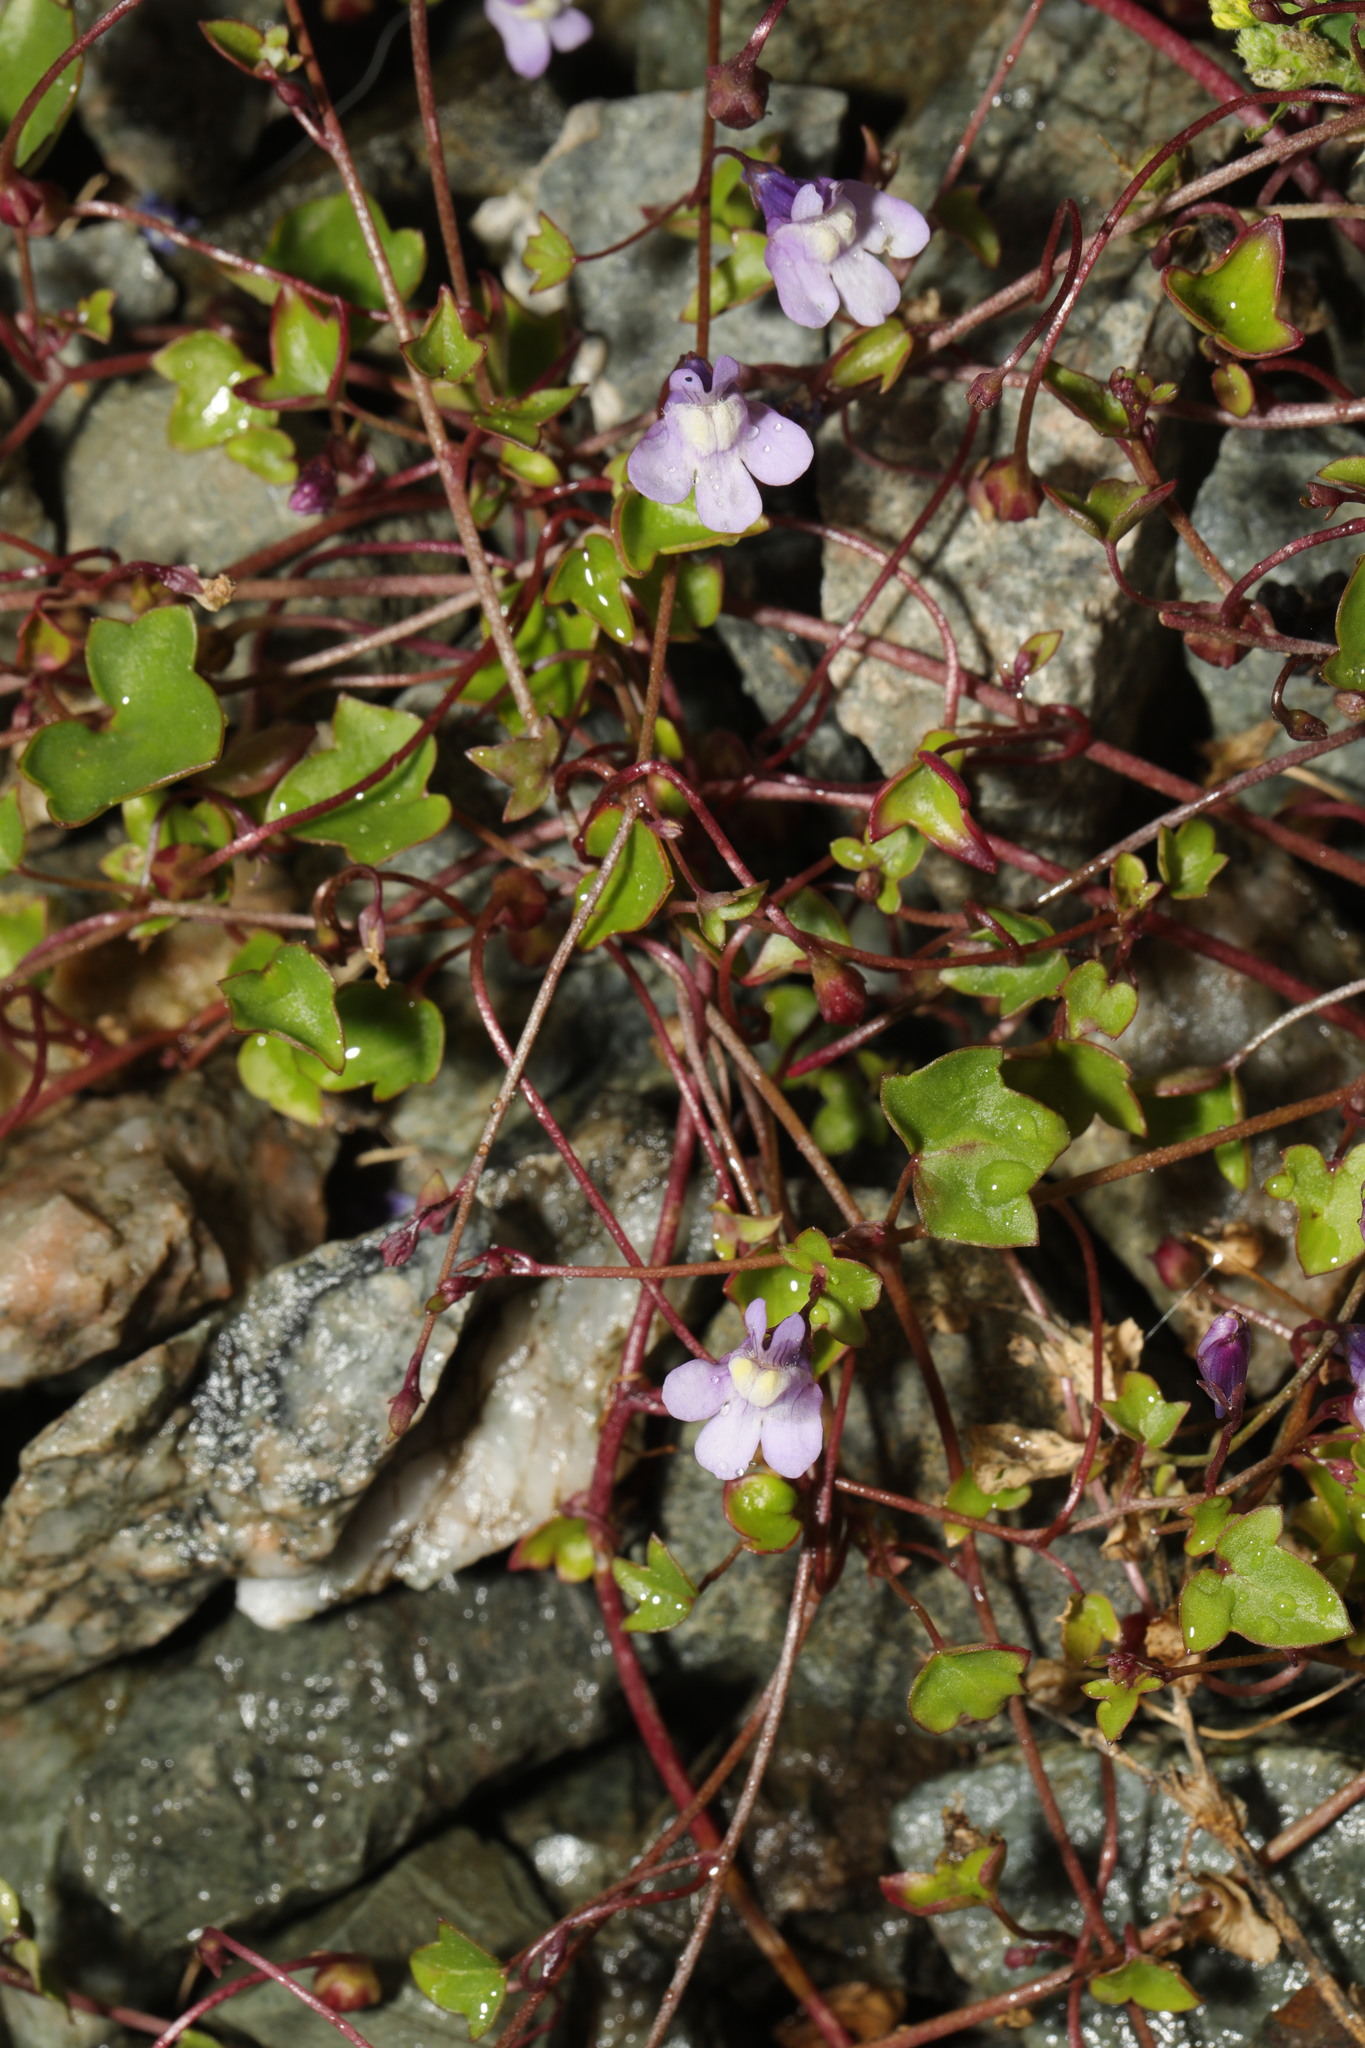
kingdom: Plantae
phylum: Tracheophyta
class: Magnoliopsida
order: Lamiales
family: Plantaginaceae
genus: Cymbalaria
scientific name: Cymbalaria muralis
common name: Ivy-leaved toadflax
